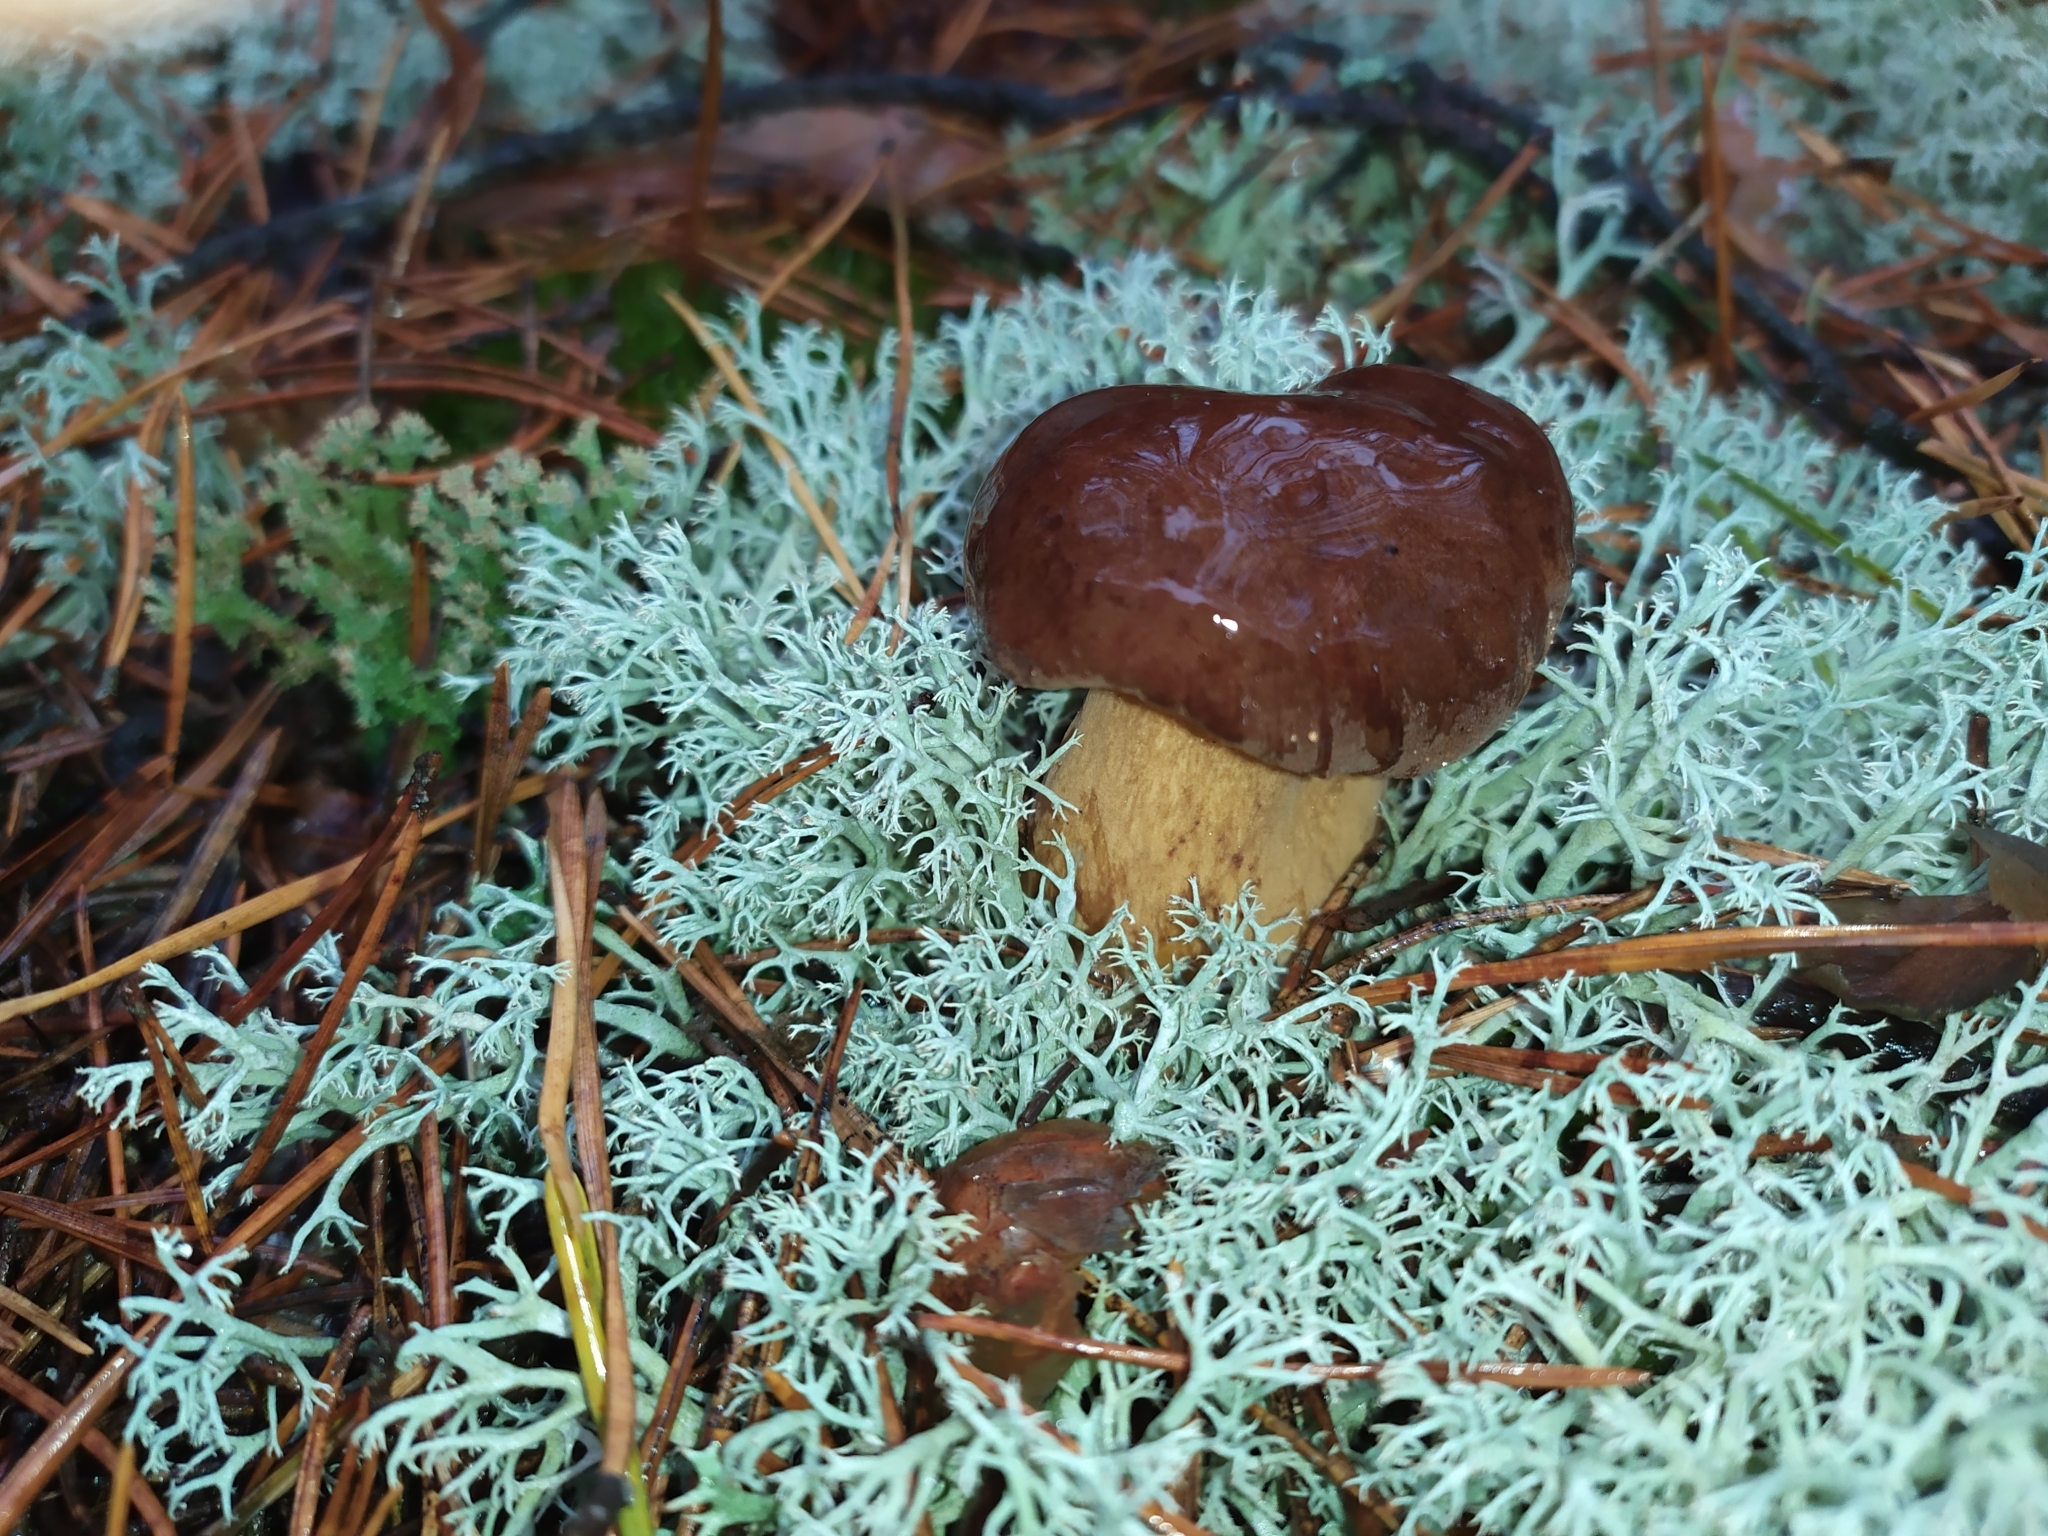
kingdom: Fungi
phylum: Basidiomycota
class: Agaricomycetes
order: Boletales
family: Boletaceae
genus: Imleria
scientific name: Imleria badia
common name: Bay bolete
